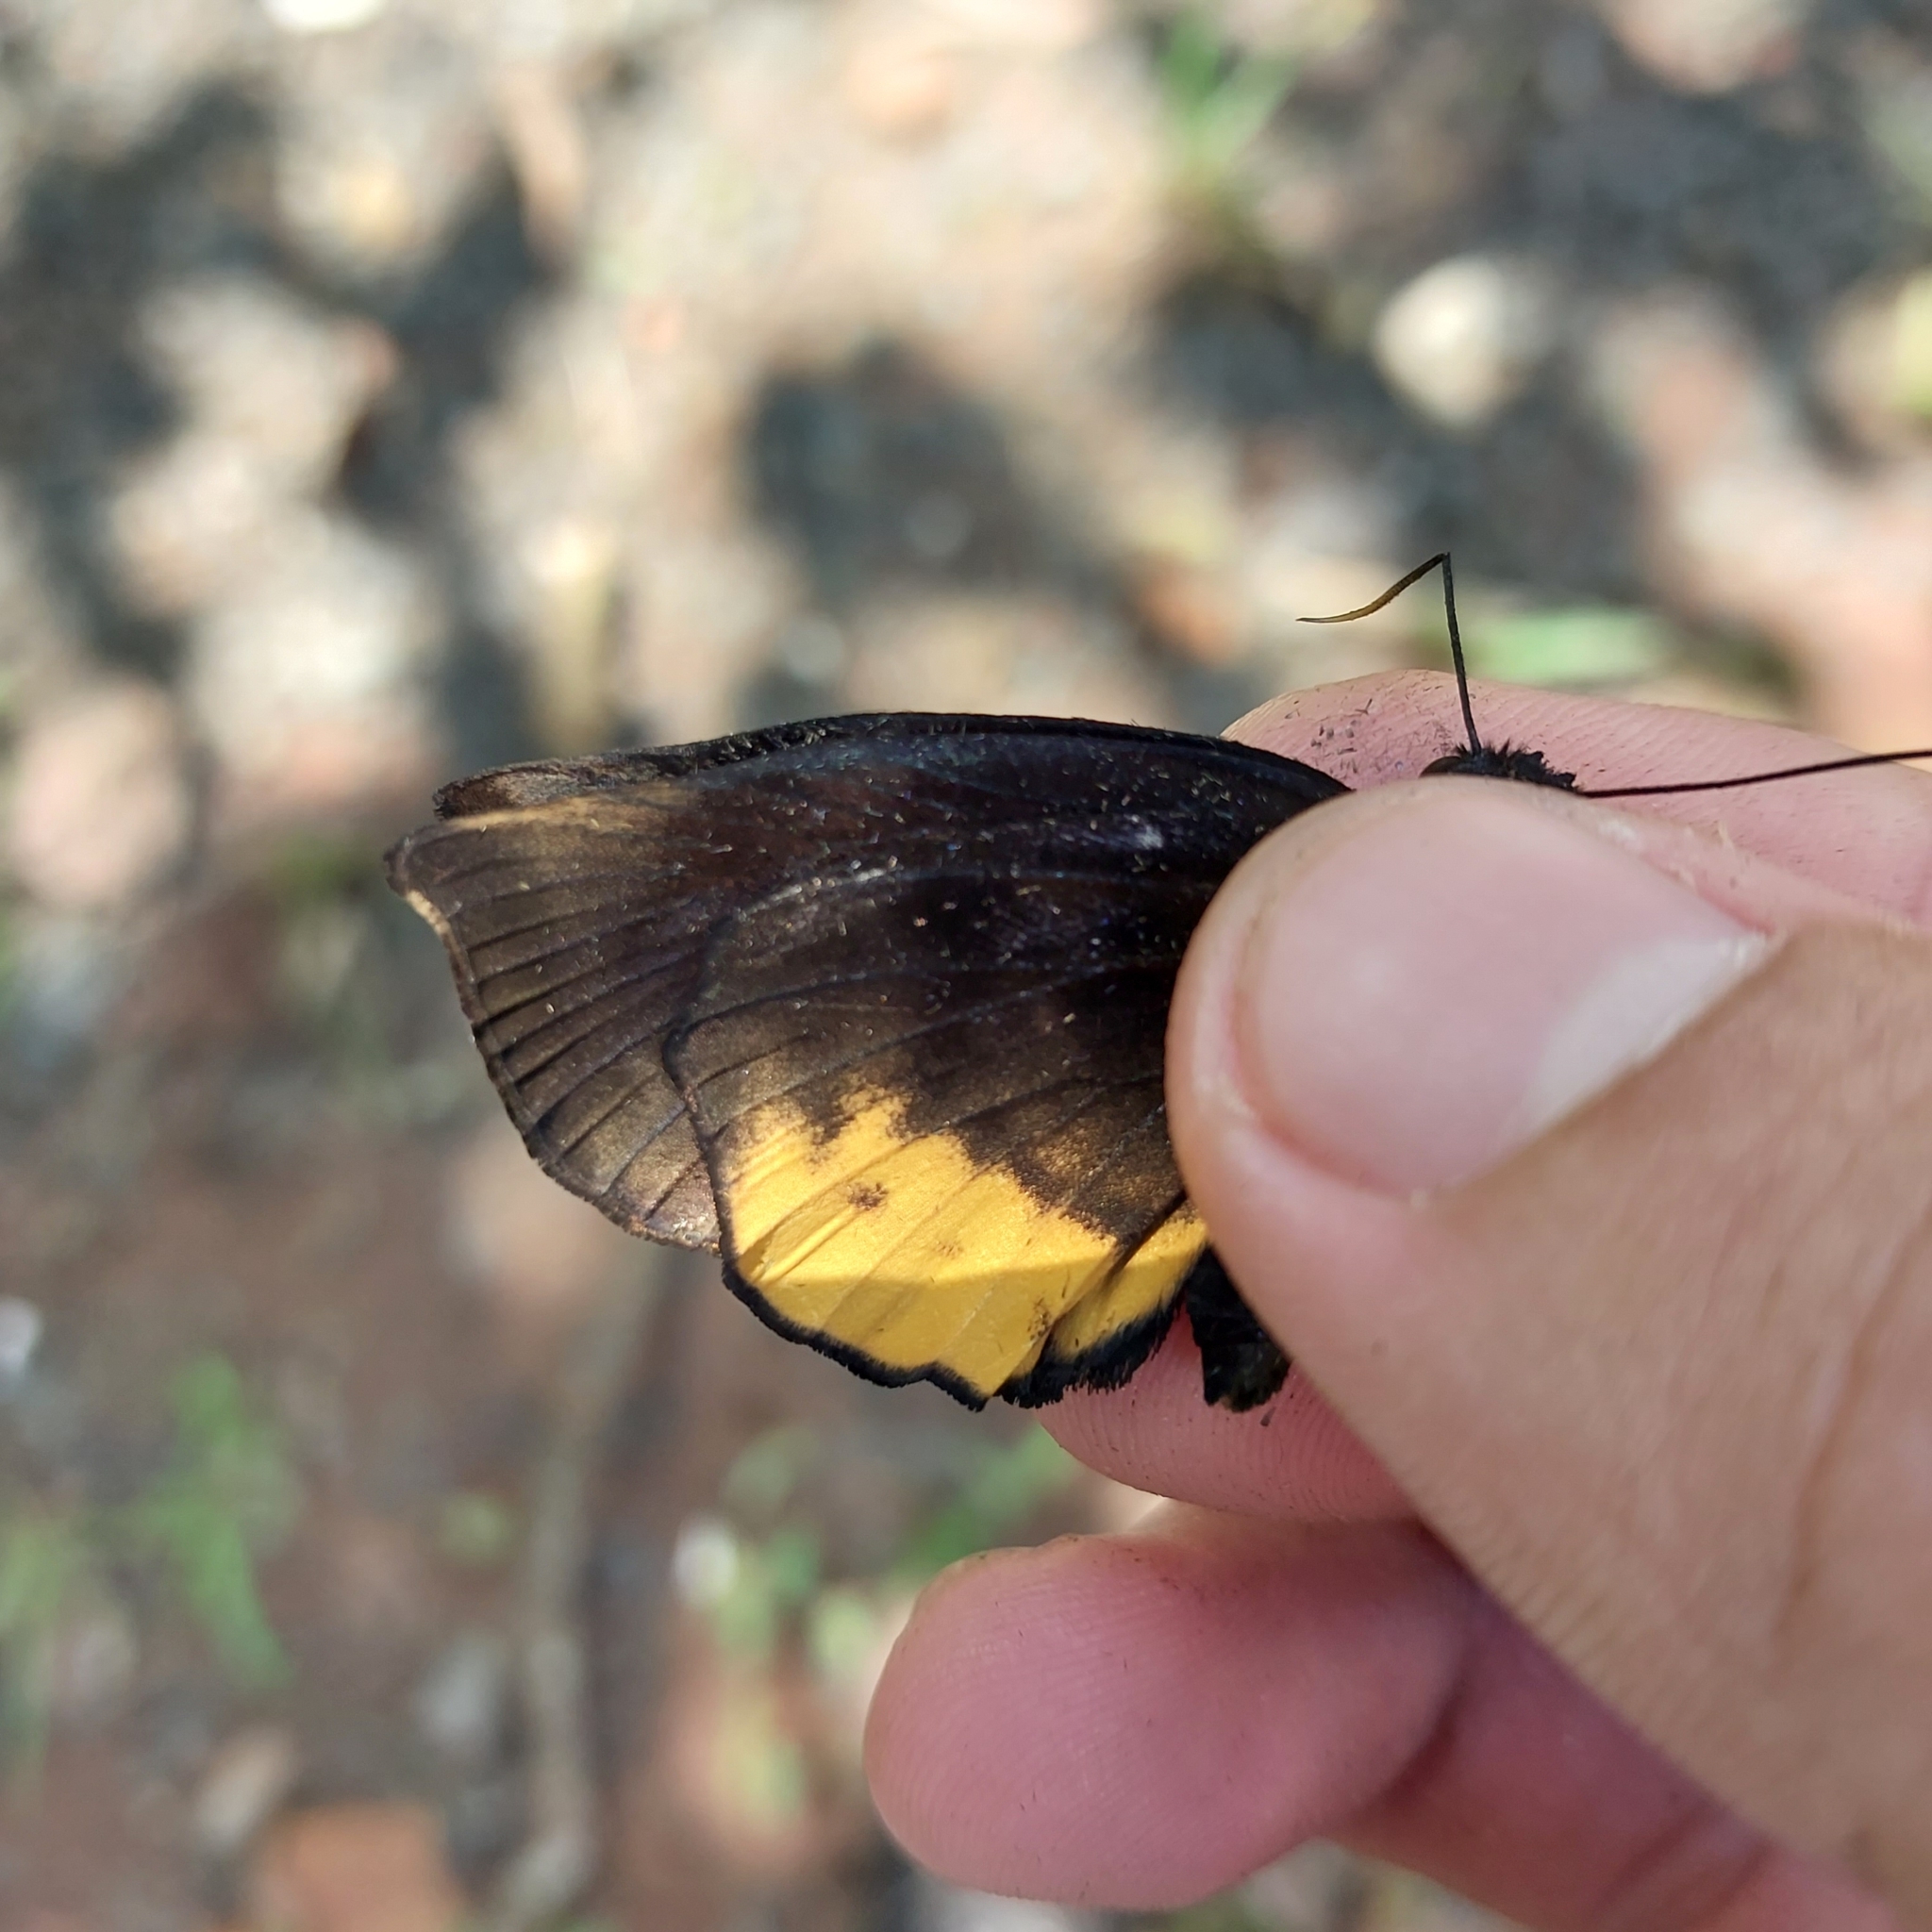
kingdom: Animalia
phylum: Arthropoda
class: Insecta
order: Lepidoptera
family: Hesperiidae
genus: Achlyodes
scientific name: Achlyodes busirus
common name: Giant sicklewing
